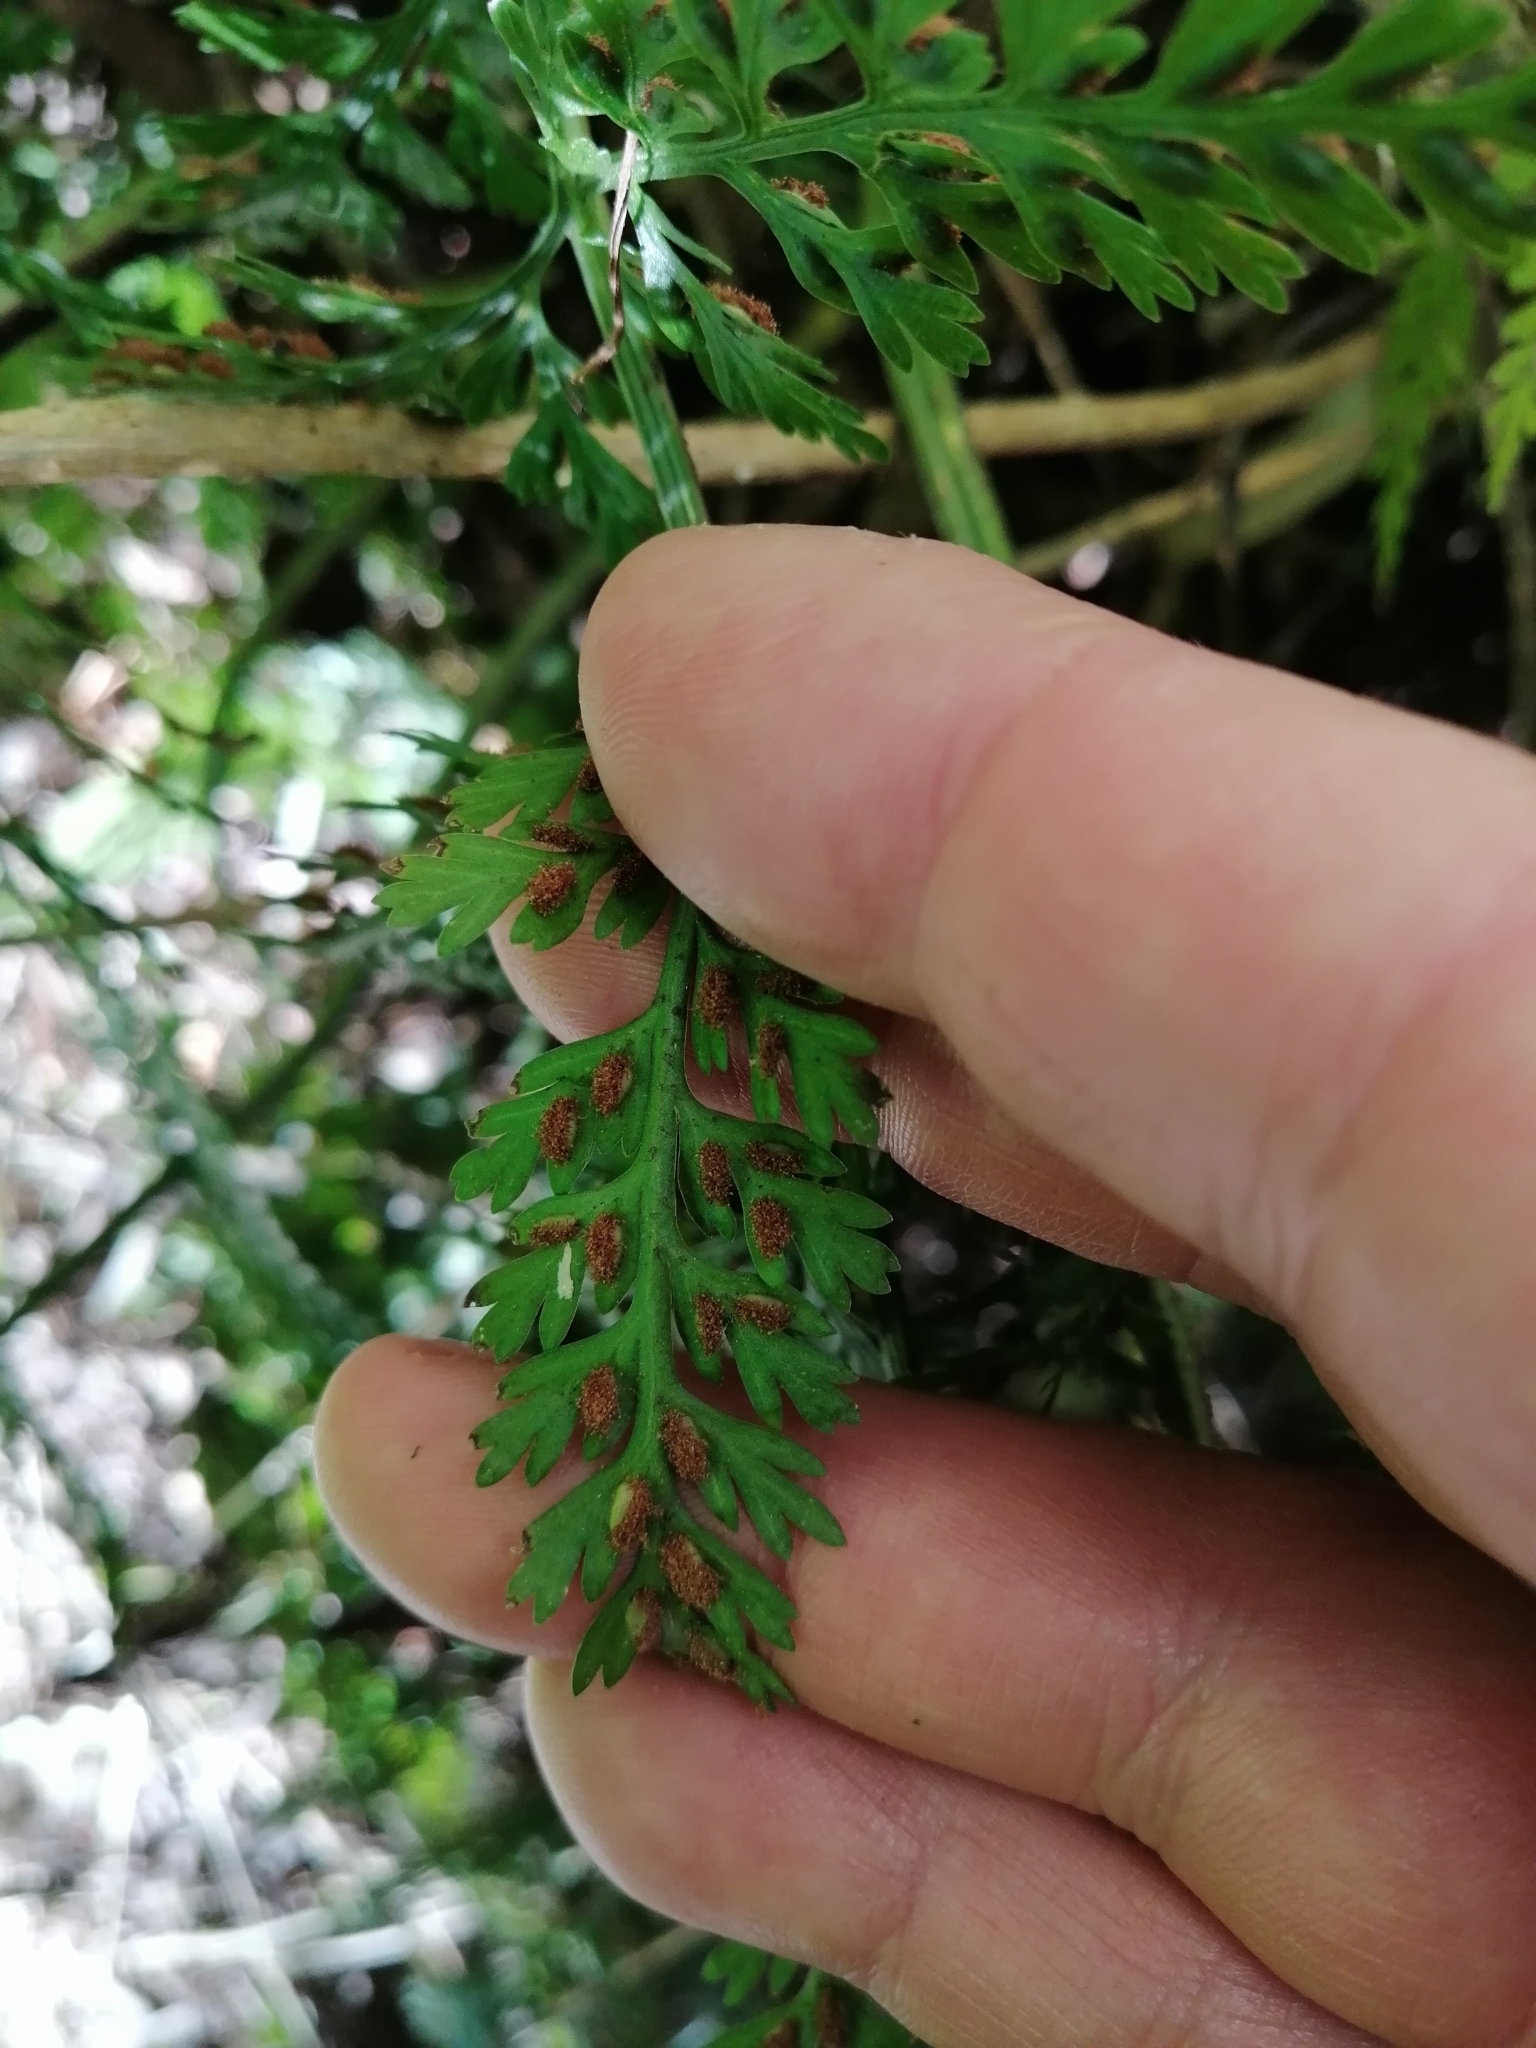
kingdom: Plantae
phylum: Tracheophyta
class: Polypodiopsida
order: Polypodiales
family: Aspleniaceae
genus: Asplenium
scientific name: Asplenium
